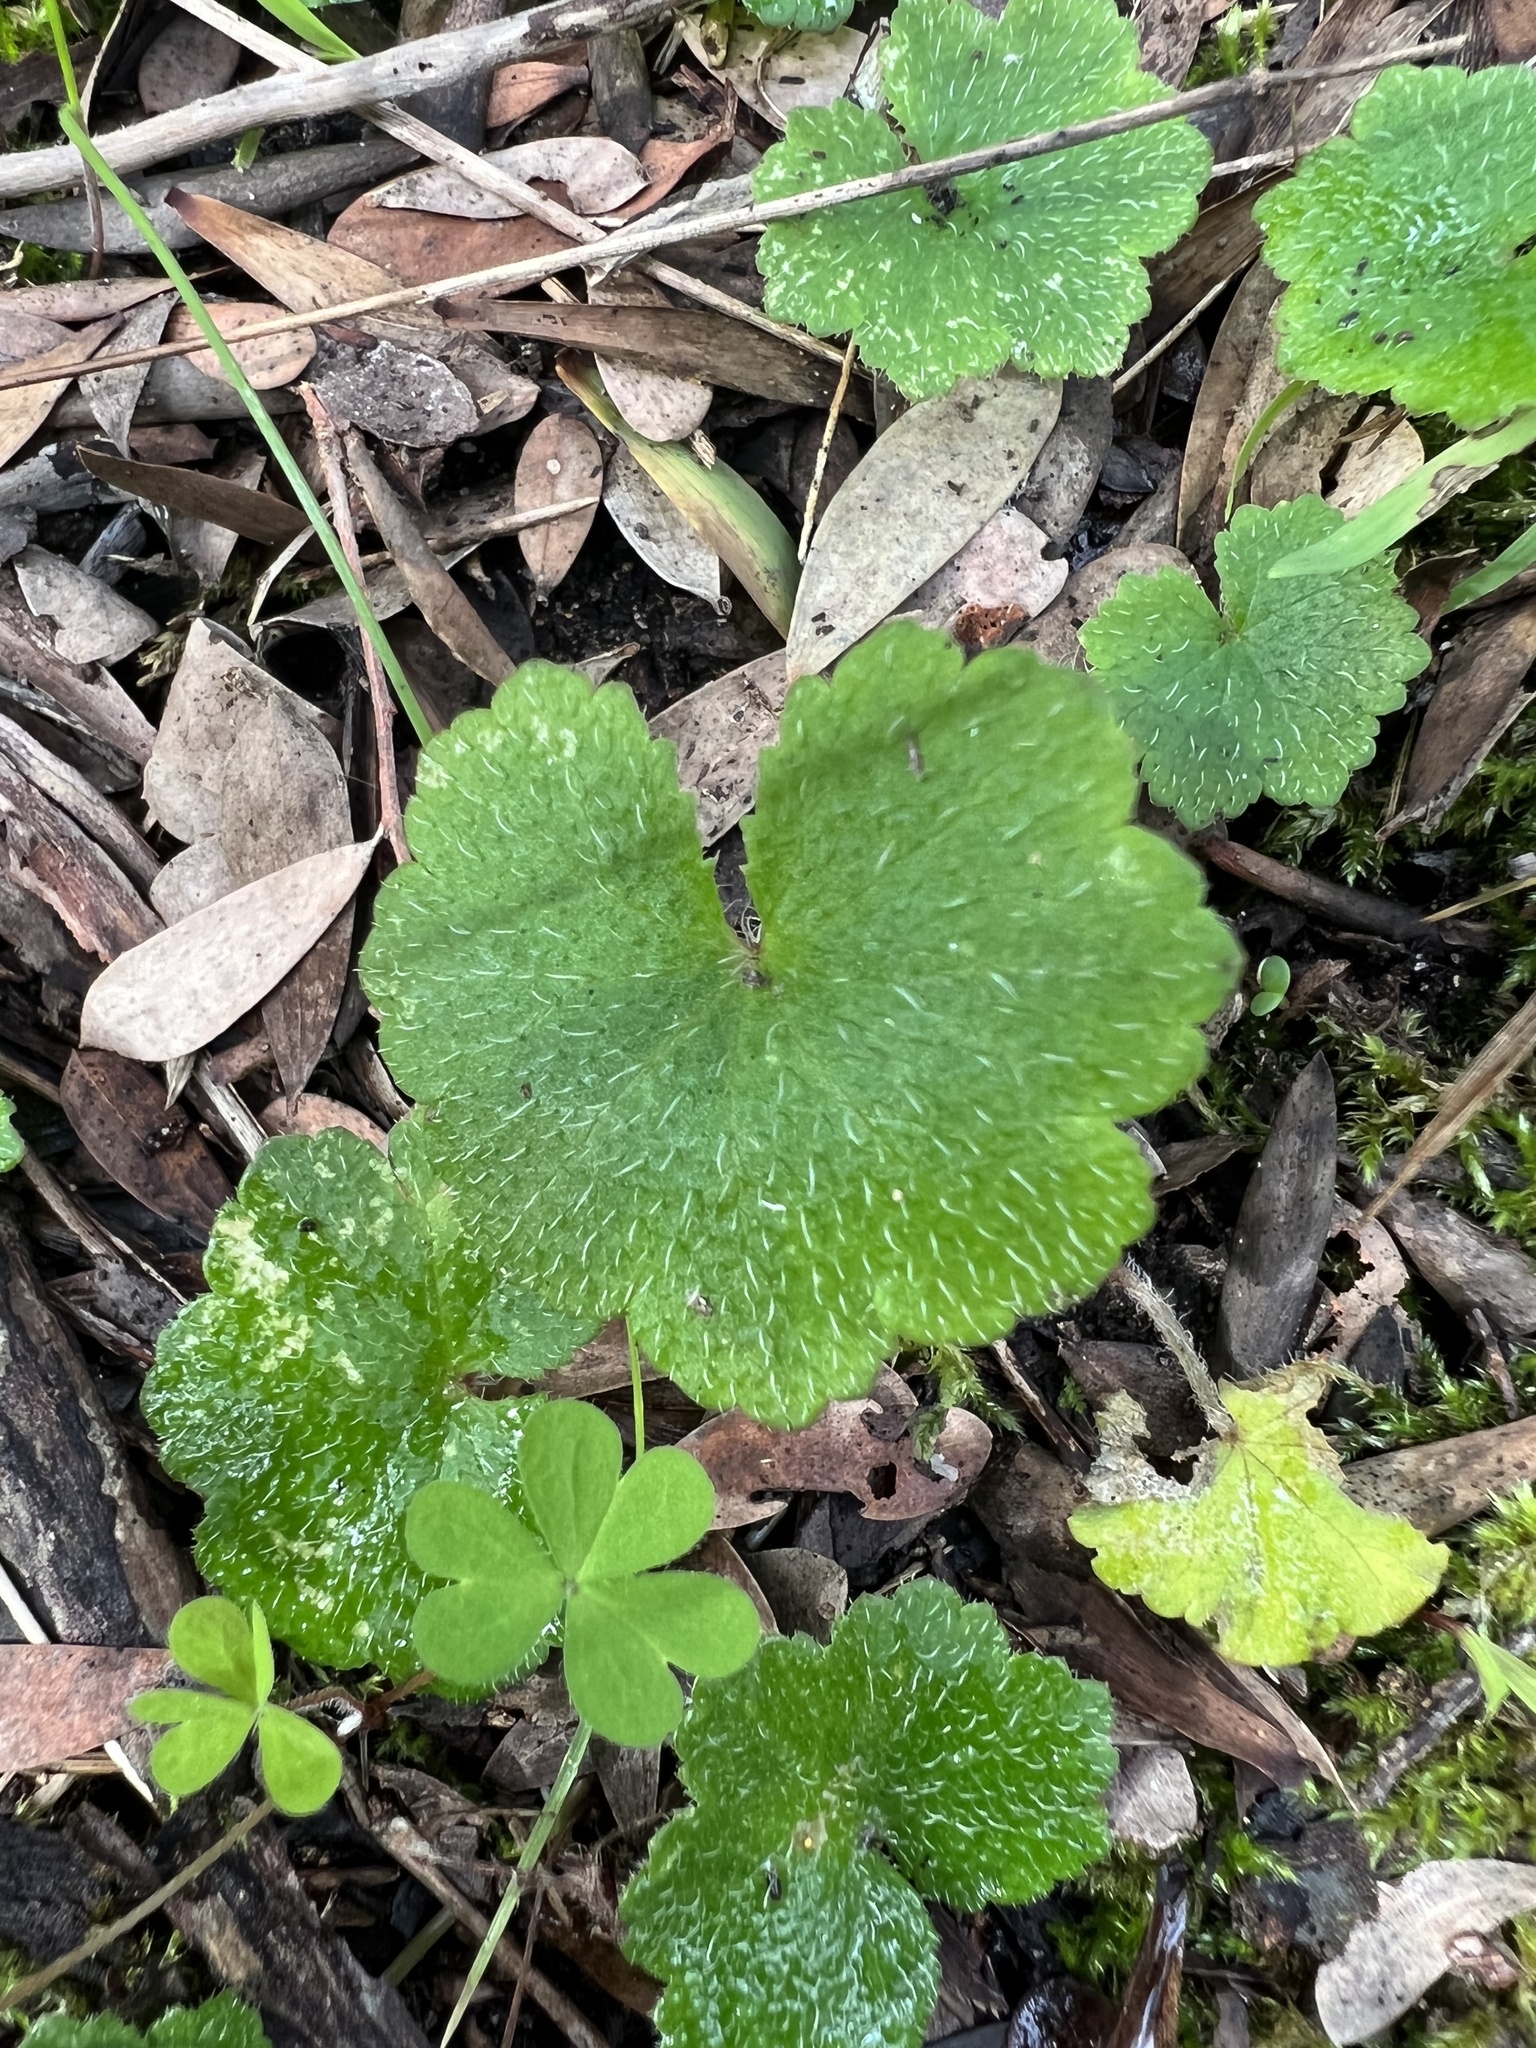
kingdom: Plantae
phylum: Tracheophyta
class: Magnoliopsida
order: Apiales
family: Araliaceae
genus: Hydrocotyle
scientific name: Hydrocotyle hirta
